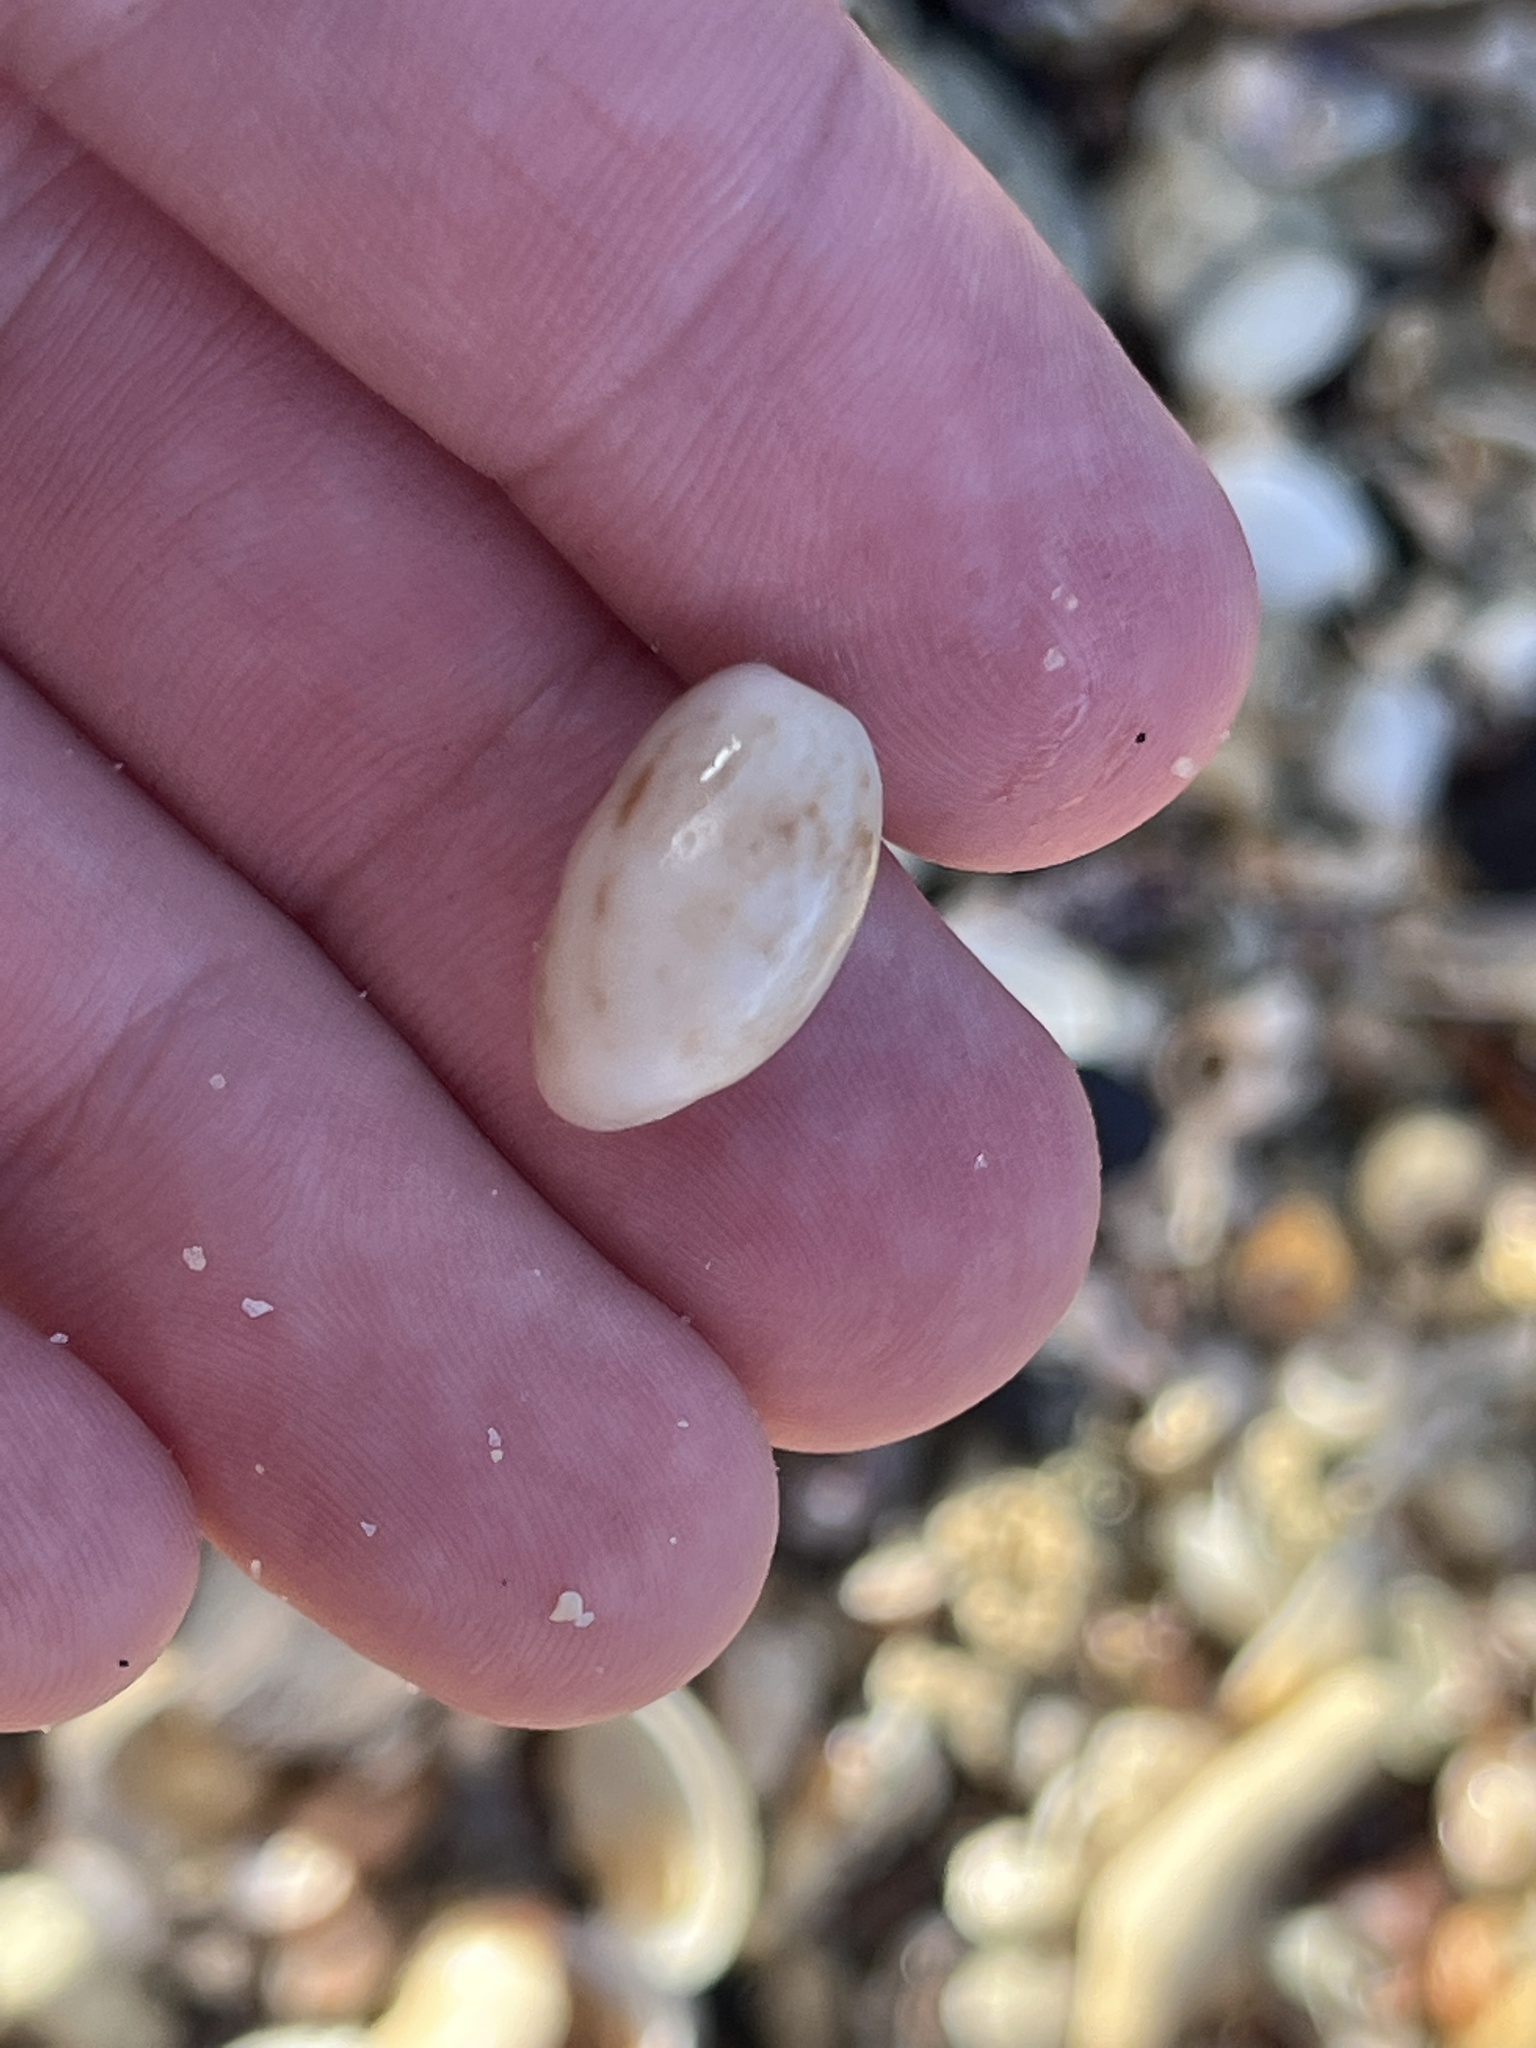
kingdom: Animalia
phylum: Mollusca
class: Gastropoda
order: Cephalaspidea
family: Bullidae
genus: Bulla
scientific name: Bulla occidentalis
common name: Common west-indian bubble
